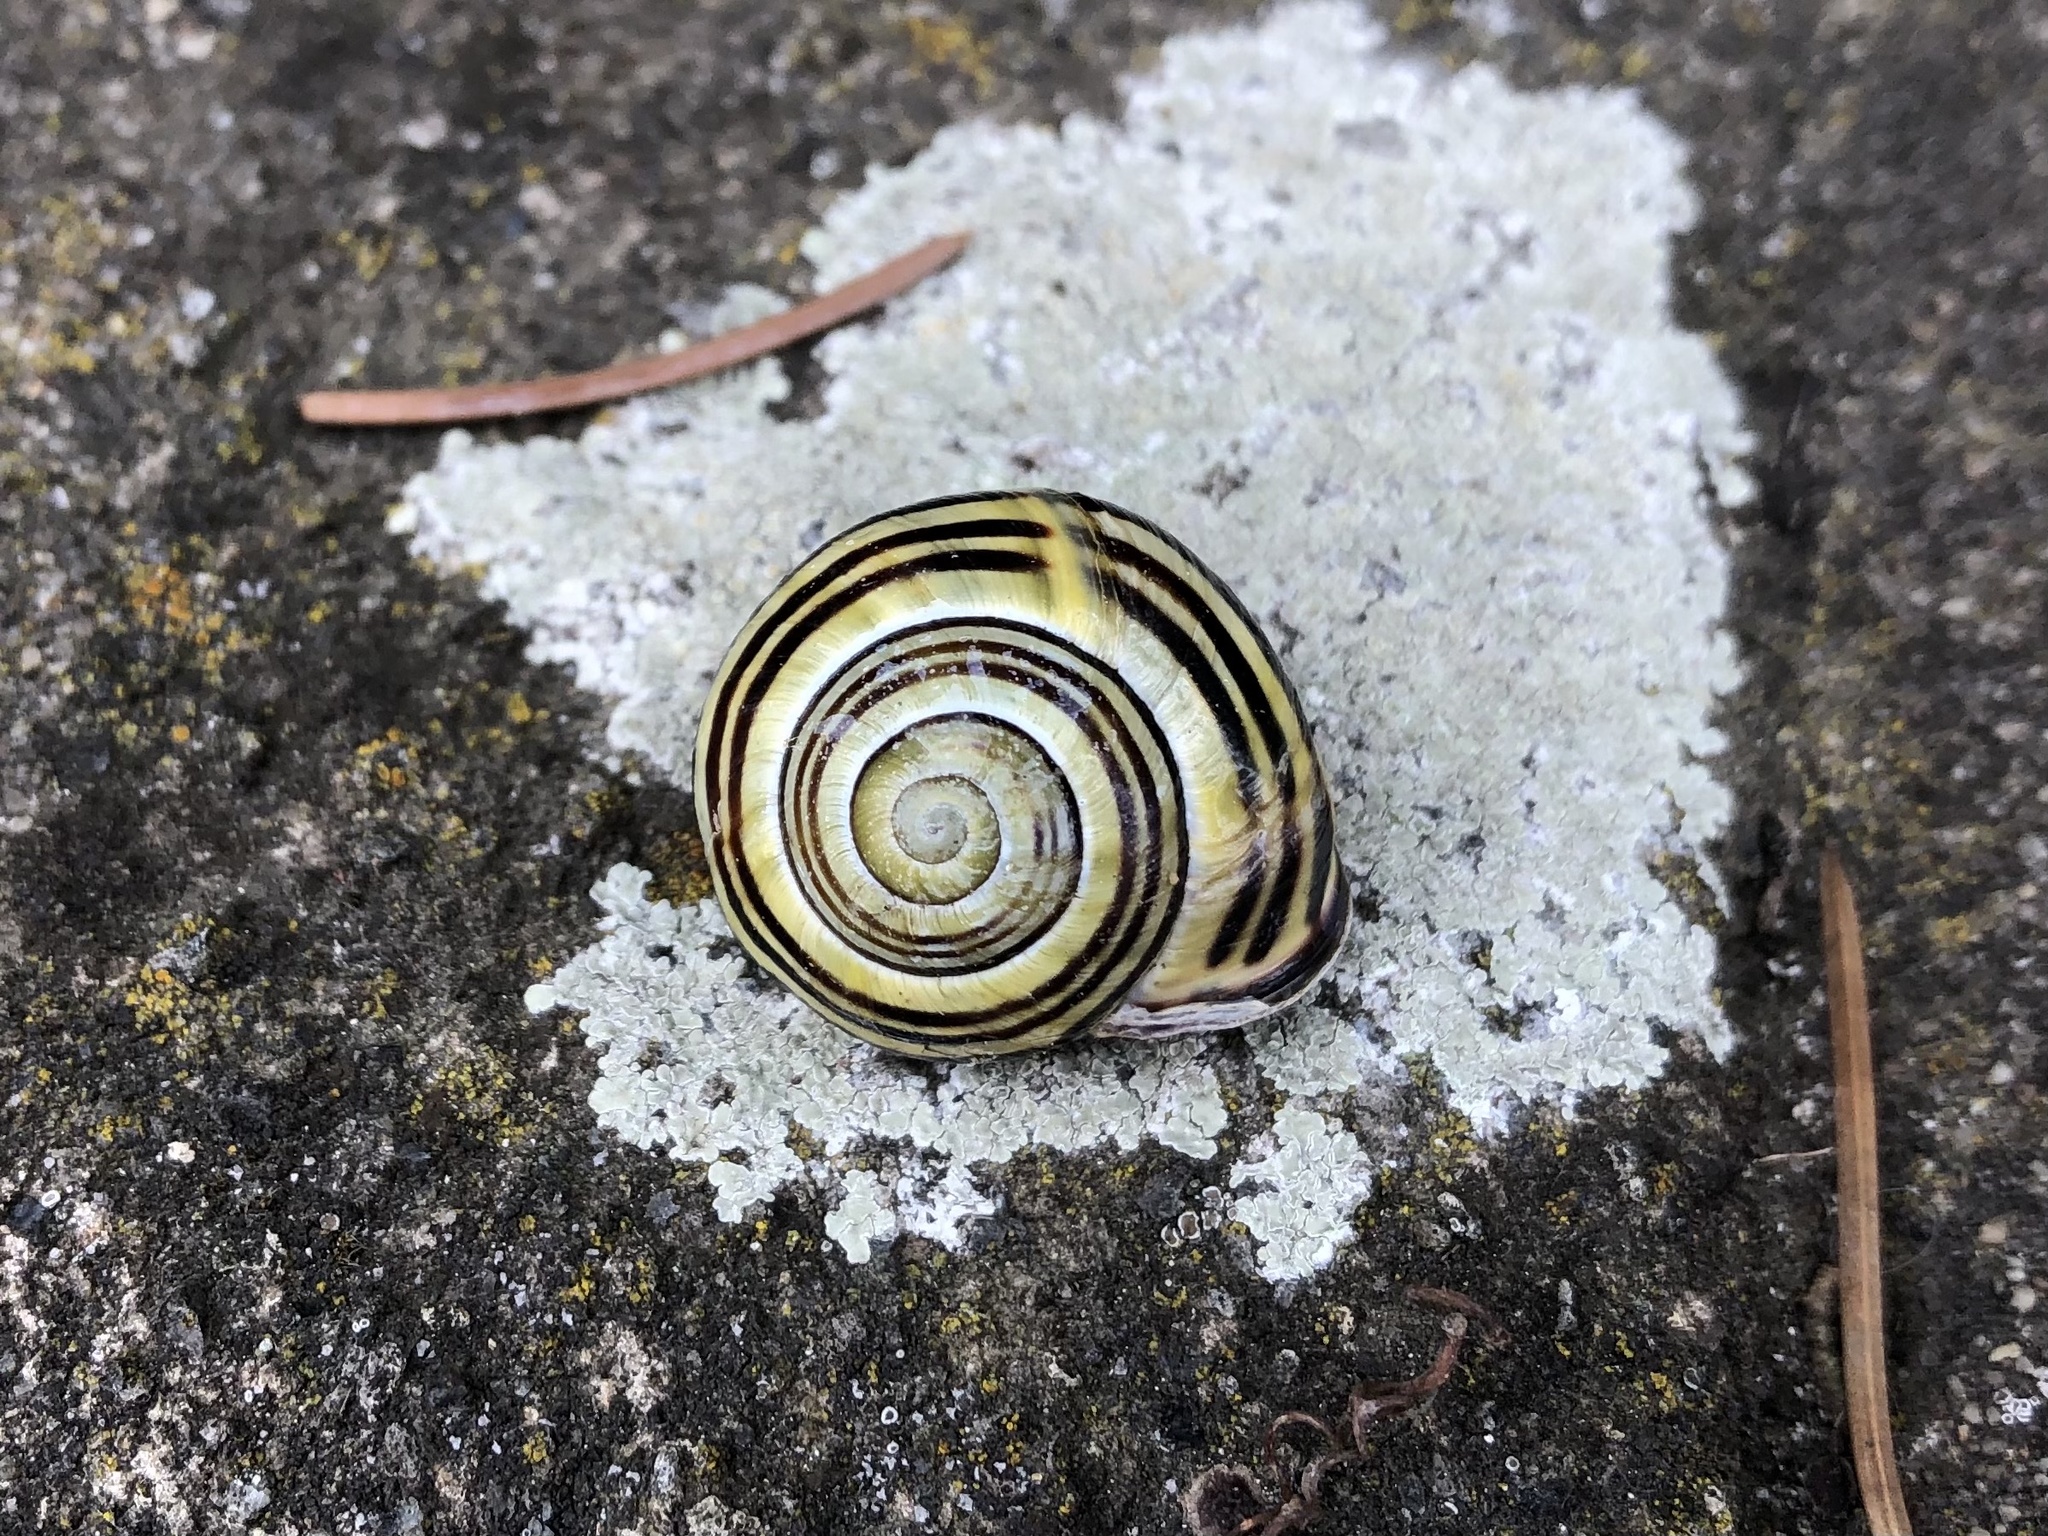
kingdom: Animalia
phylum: Mollusca
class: Gastropoda
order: Stylommatophora
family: Helicidae
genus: Cepaea
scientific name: Cepaea nemoralis
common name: Grovesnail
